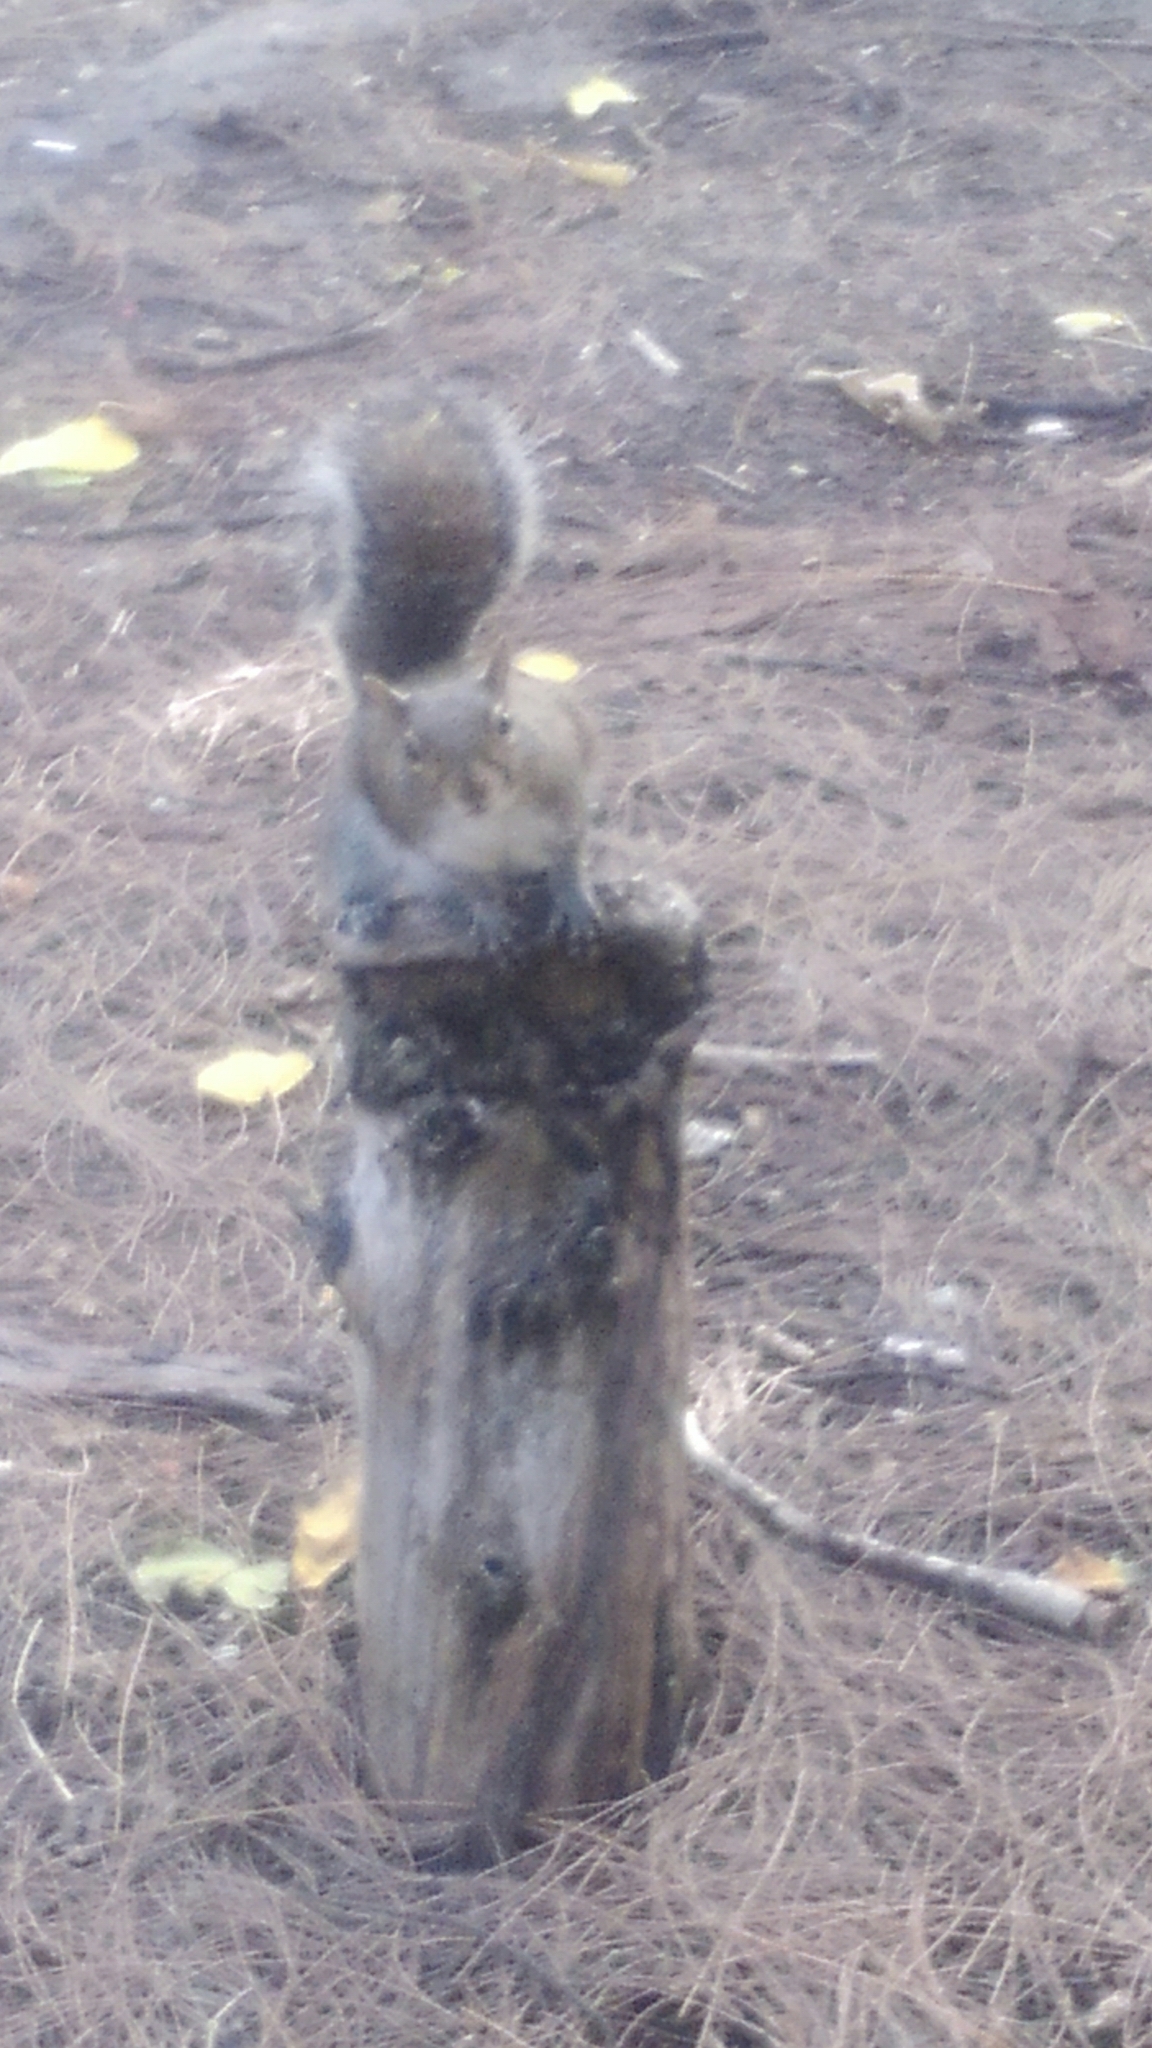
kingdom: Animalia
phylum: Chordata
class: Mammalia
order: Rodentia
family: Sciuridae
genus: Sciurus
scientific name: Sciurus carolinensis
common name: Eastern gray squirrel
